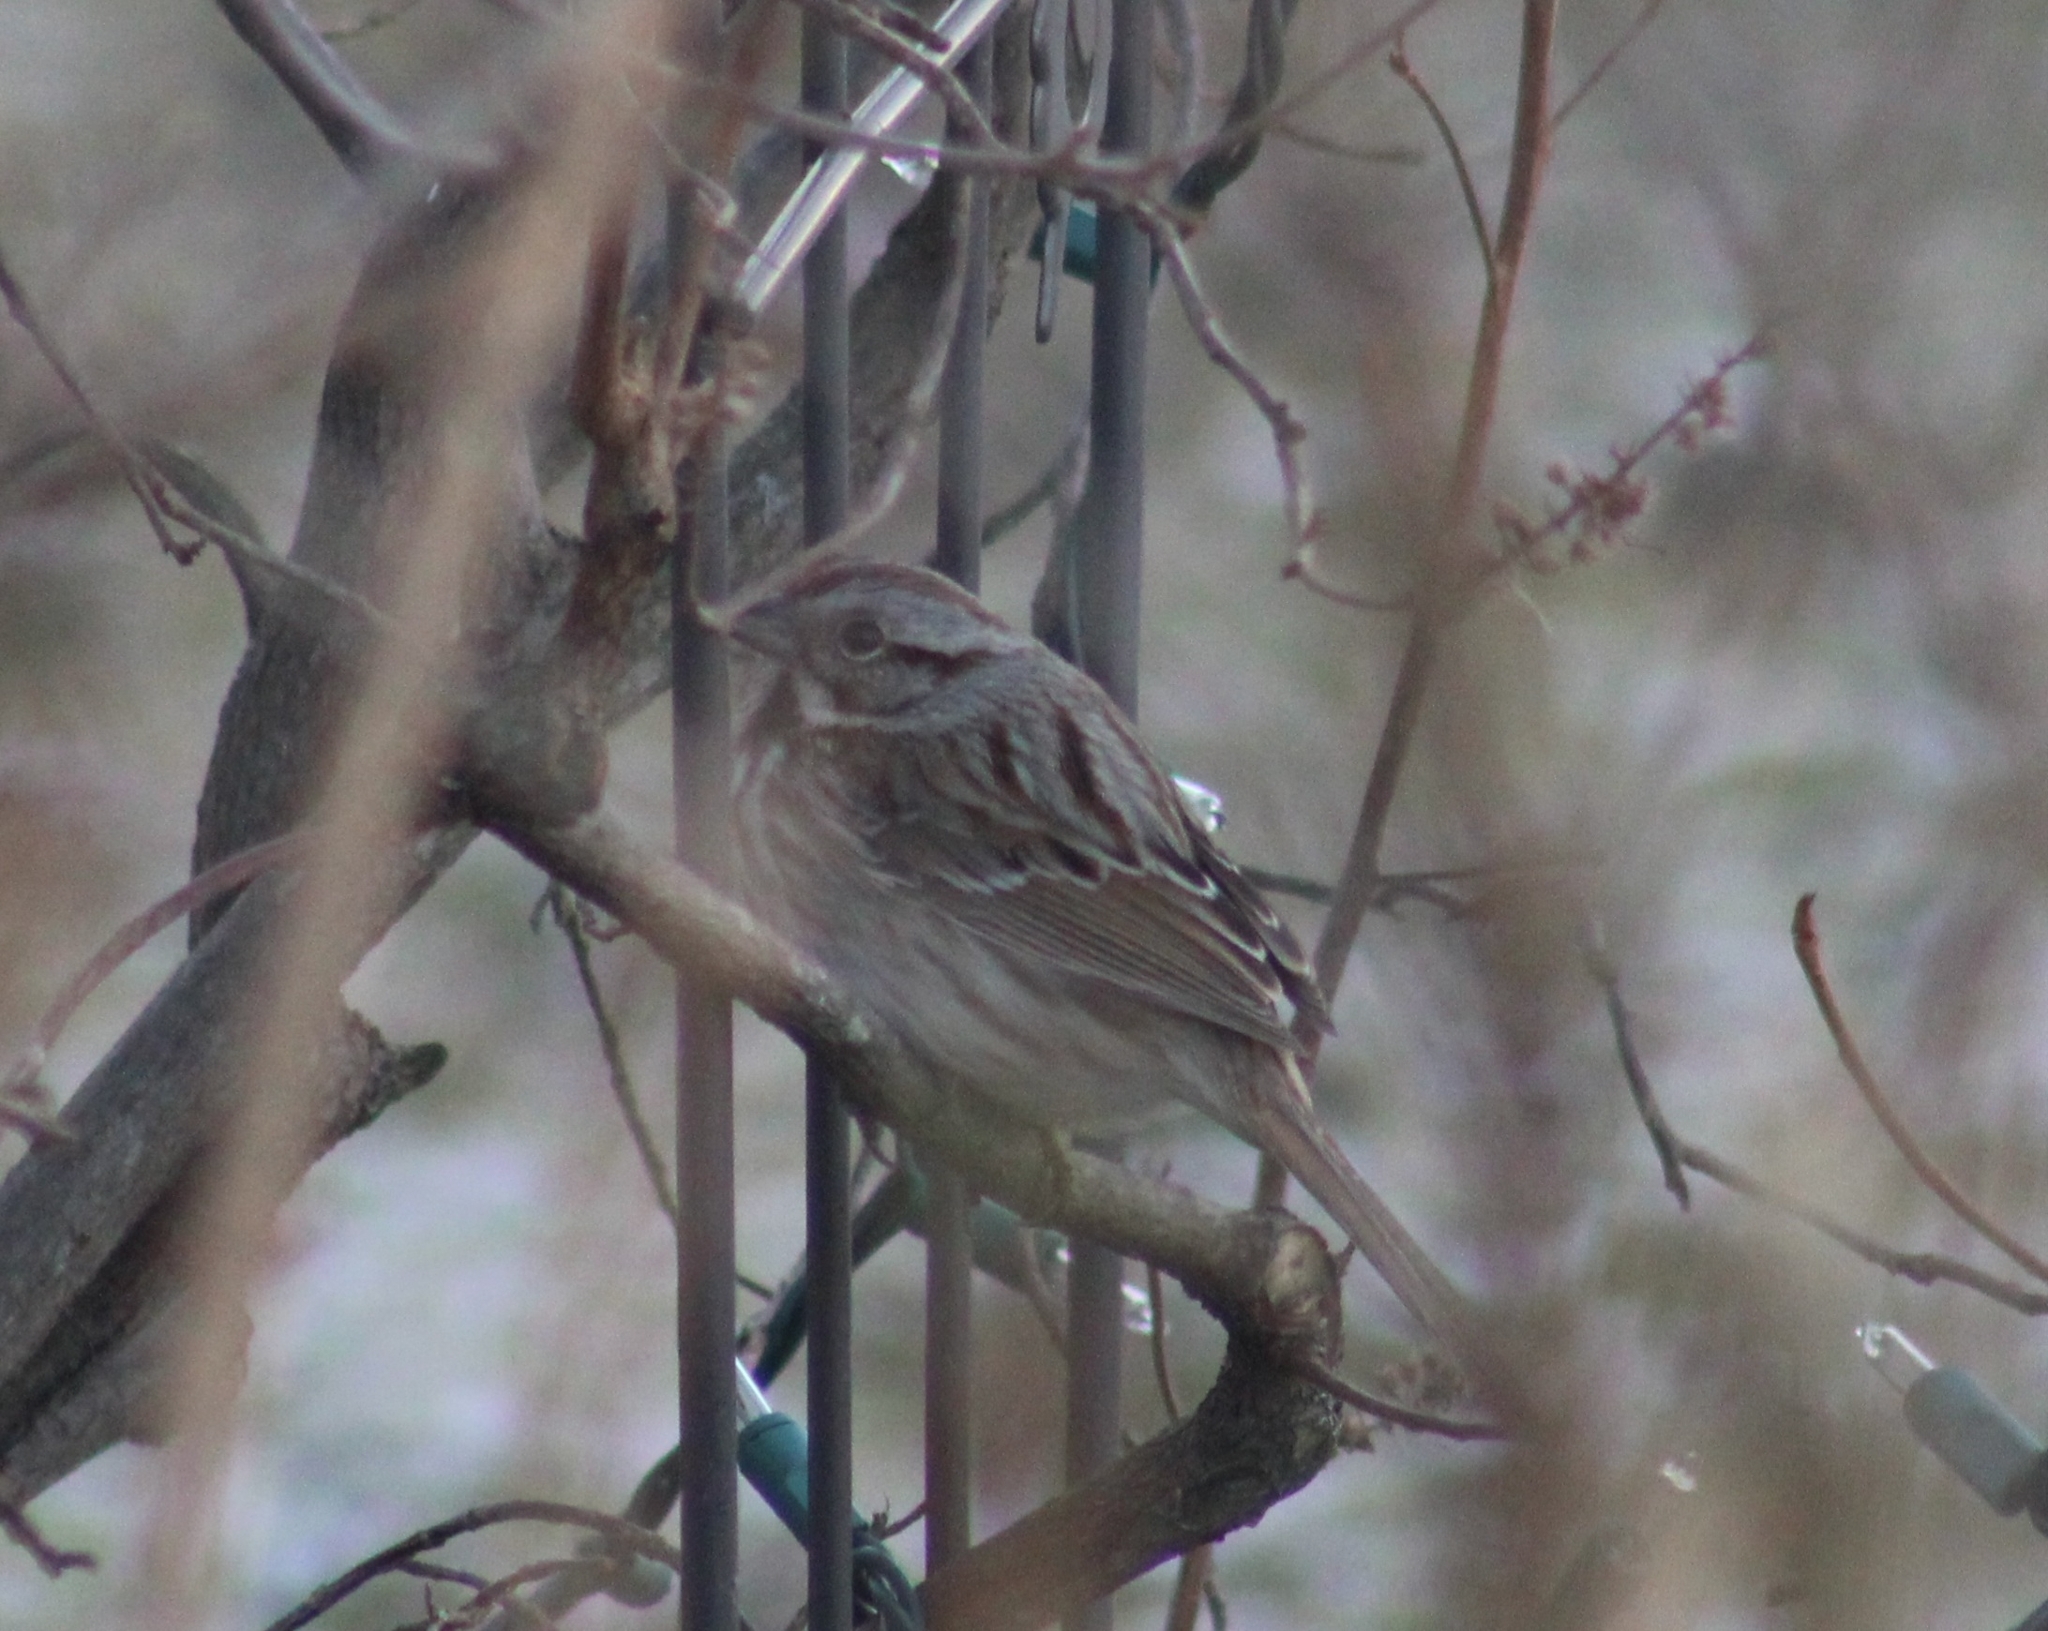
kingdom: Animalia
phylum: Chordata
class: Aves
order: Passeriformes
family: Passerellidae
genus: Melospiza
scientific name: Melospiza melodia
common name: Song sparrow
